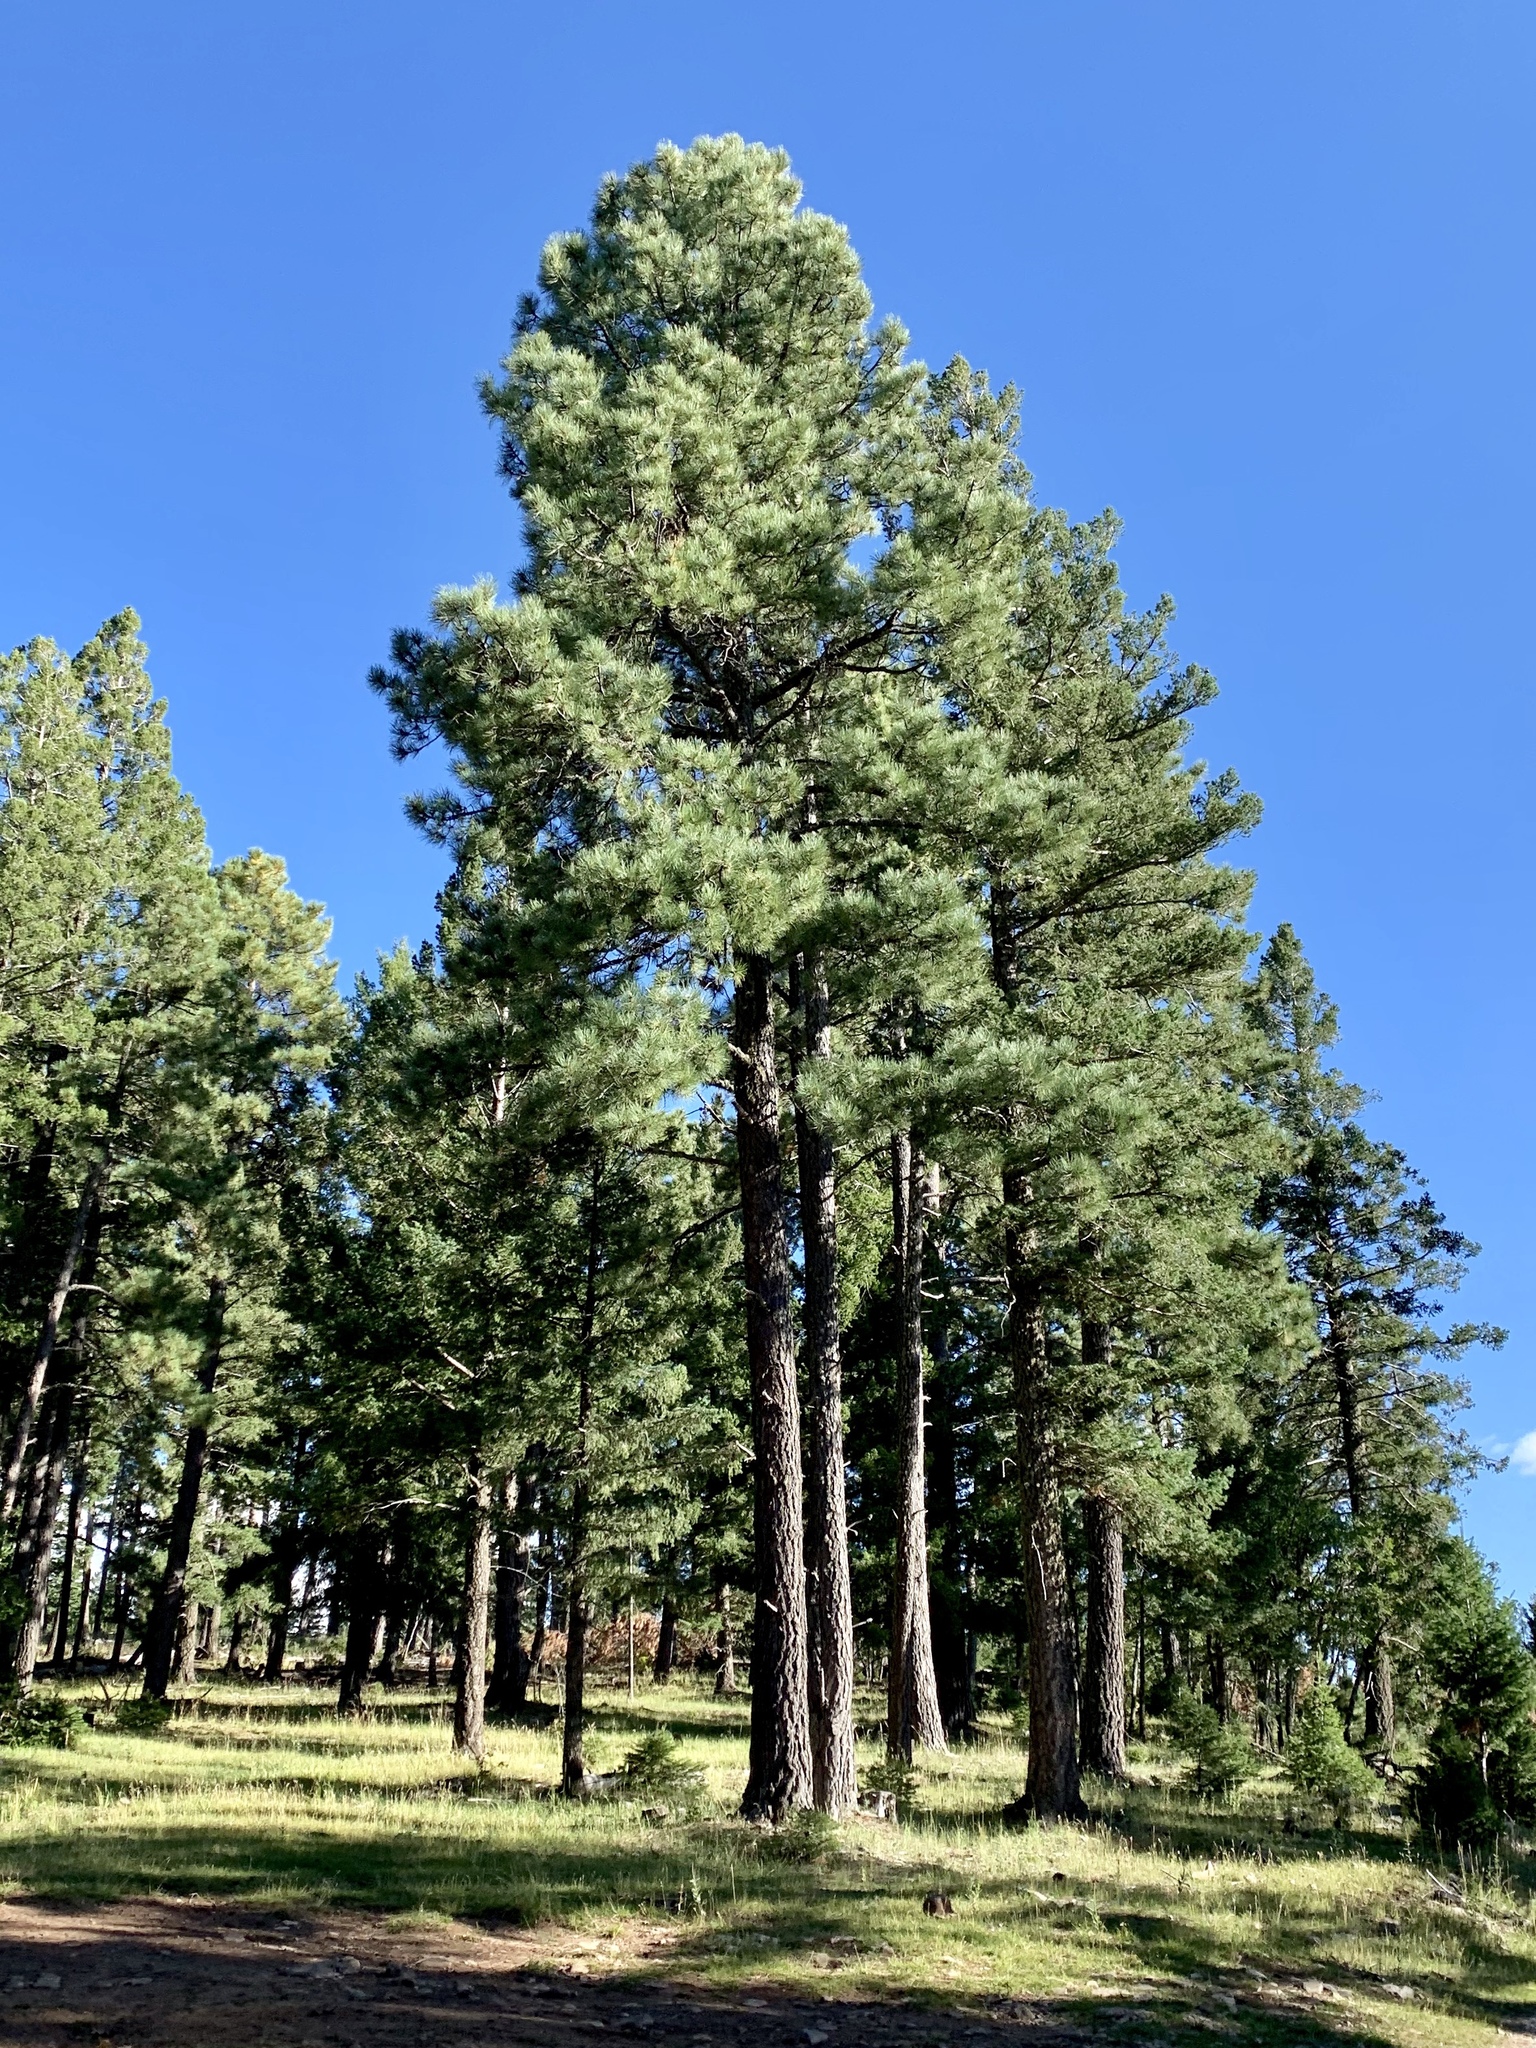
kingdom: Plantae
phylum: Tracheophyta
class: Pinopsida
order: Pinales
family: Pinaceae
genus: Pinus
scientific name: Pinus ponderosa
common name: Western yellow-pine
